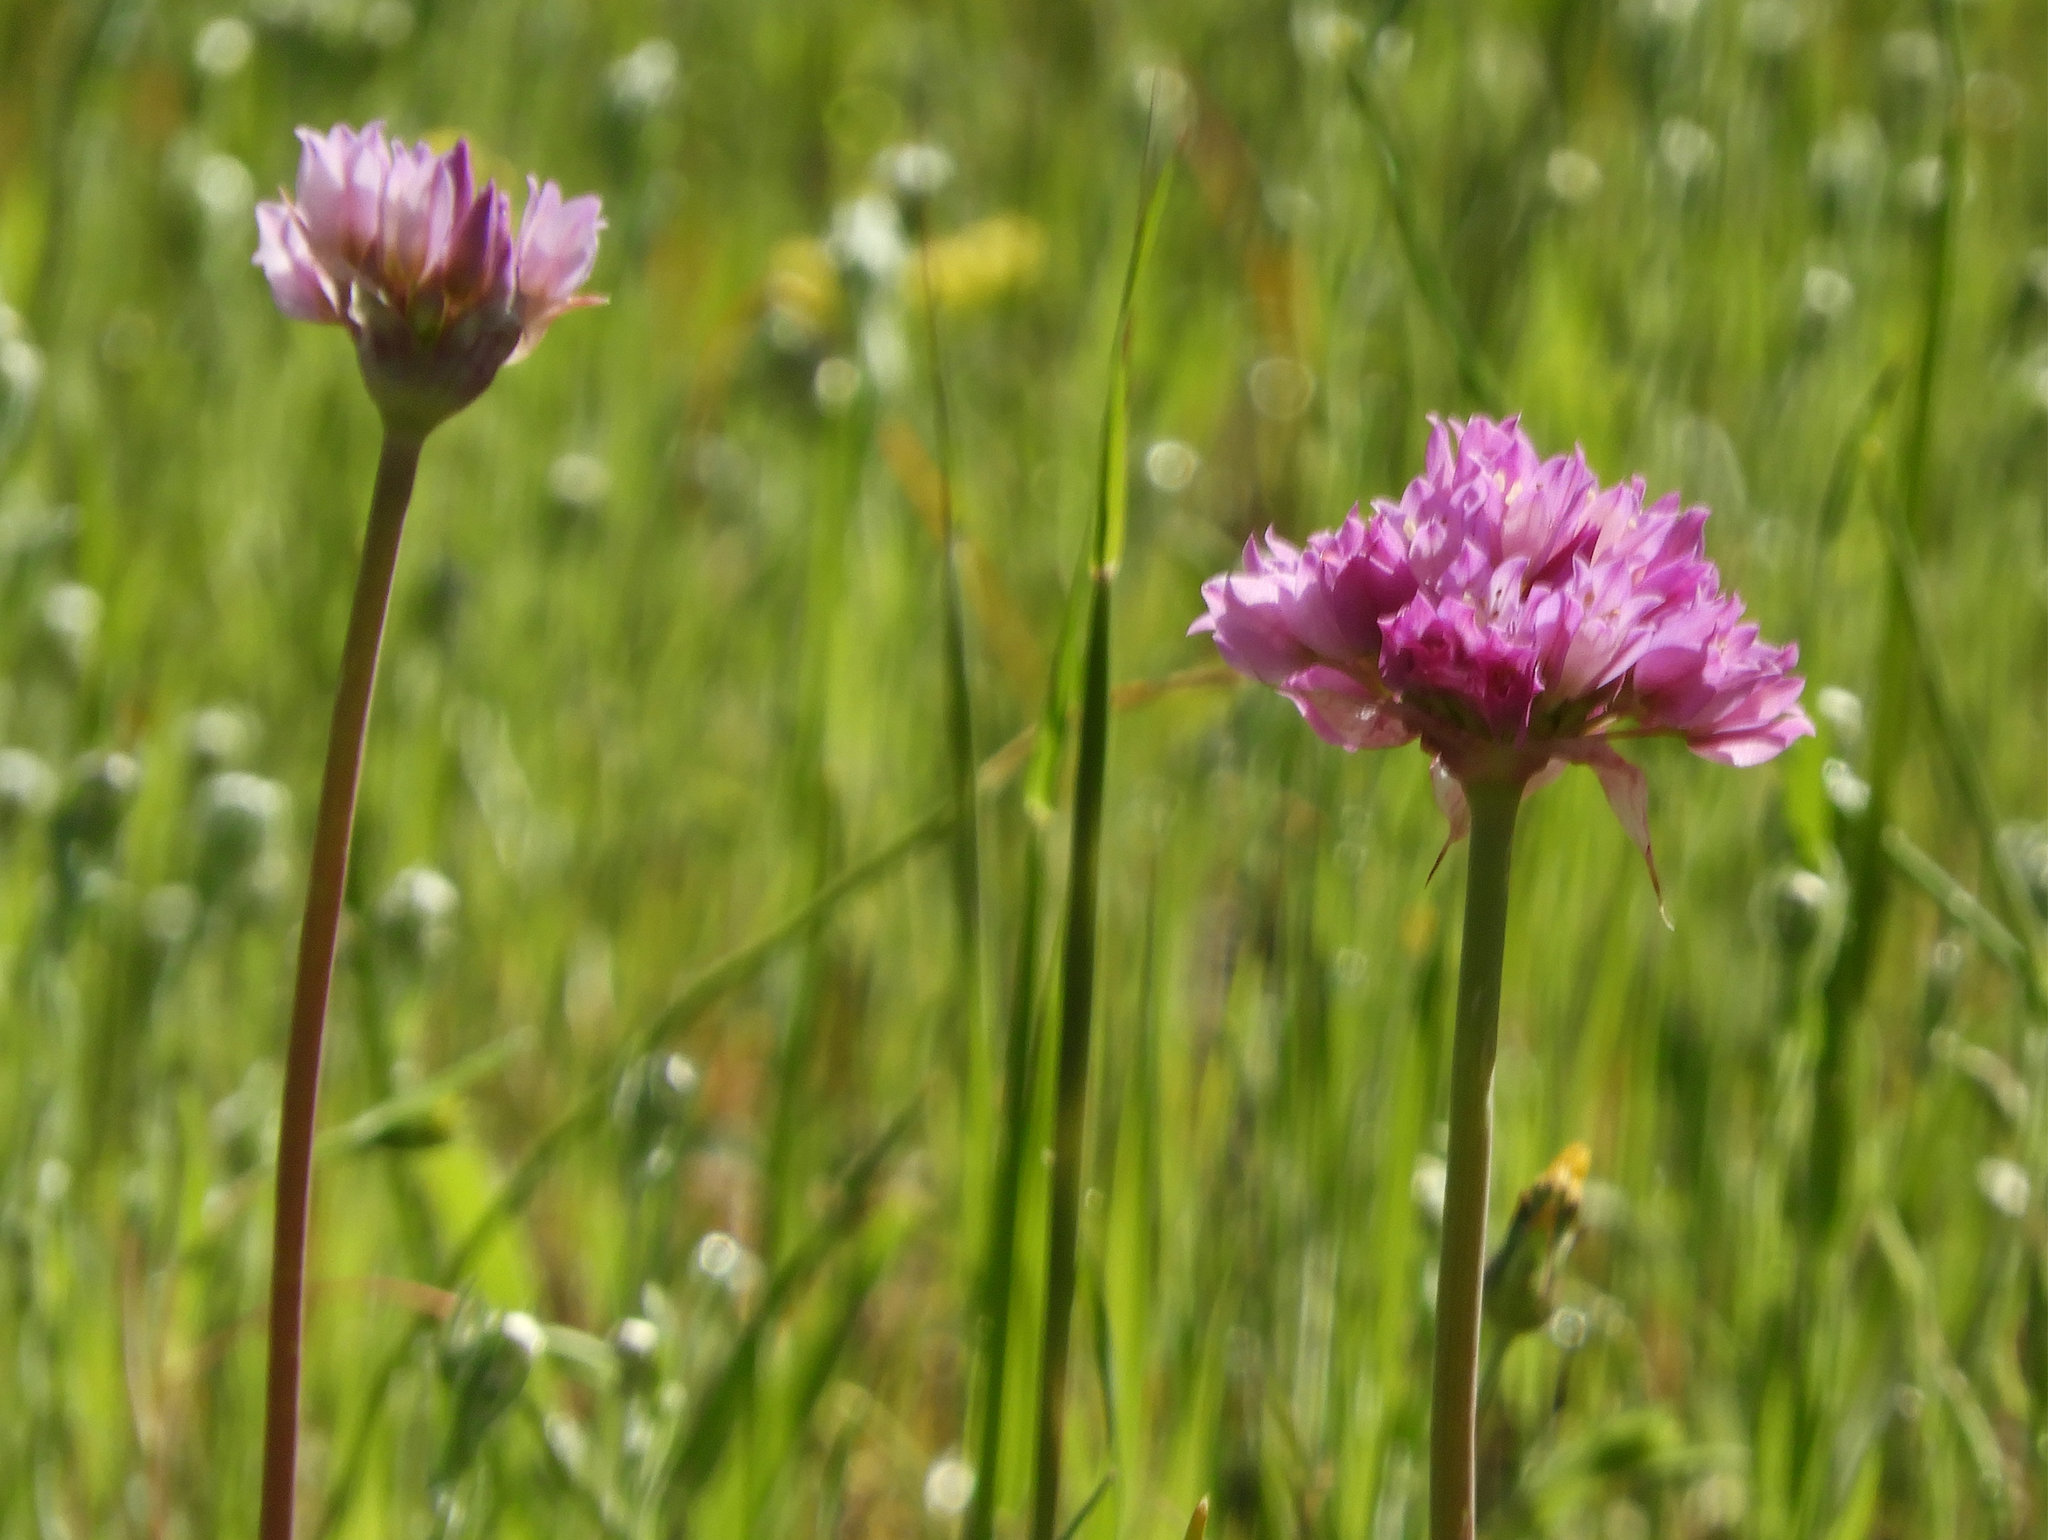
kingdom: Plantae
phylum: Tracheophyta
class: Liliopsida
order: Asparagales
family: Amaryllidaceae
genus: Allium
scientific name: Allium serra
